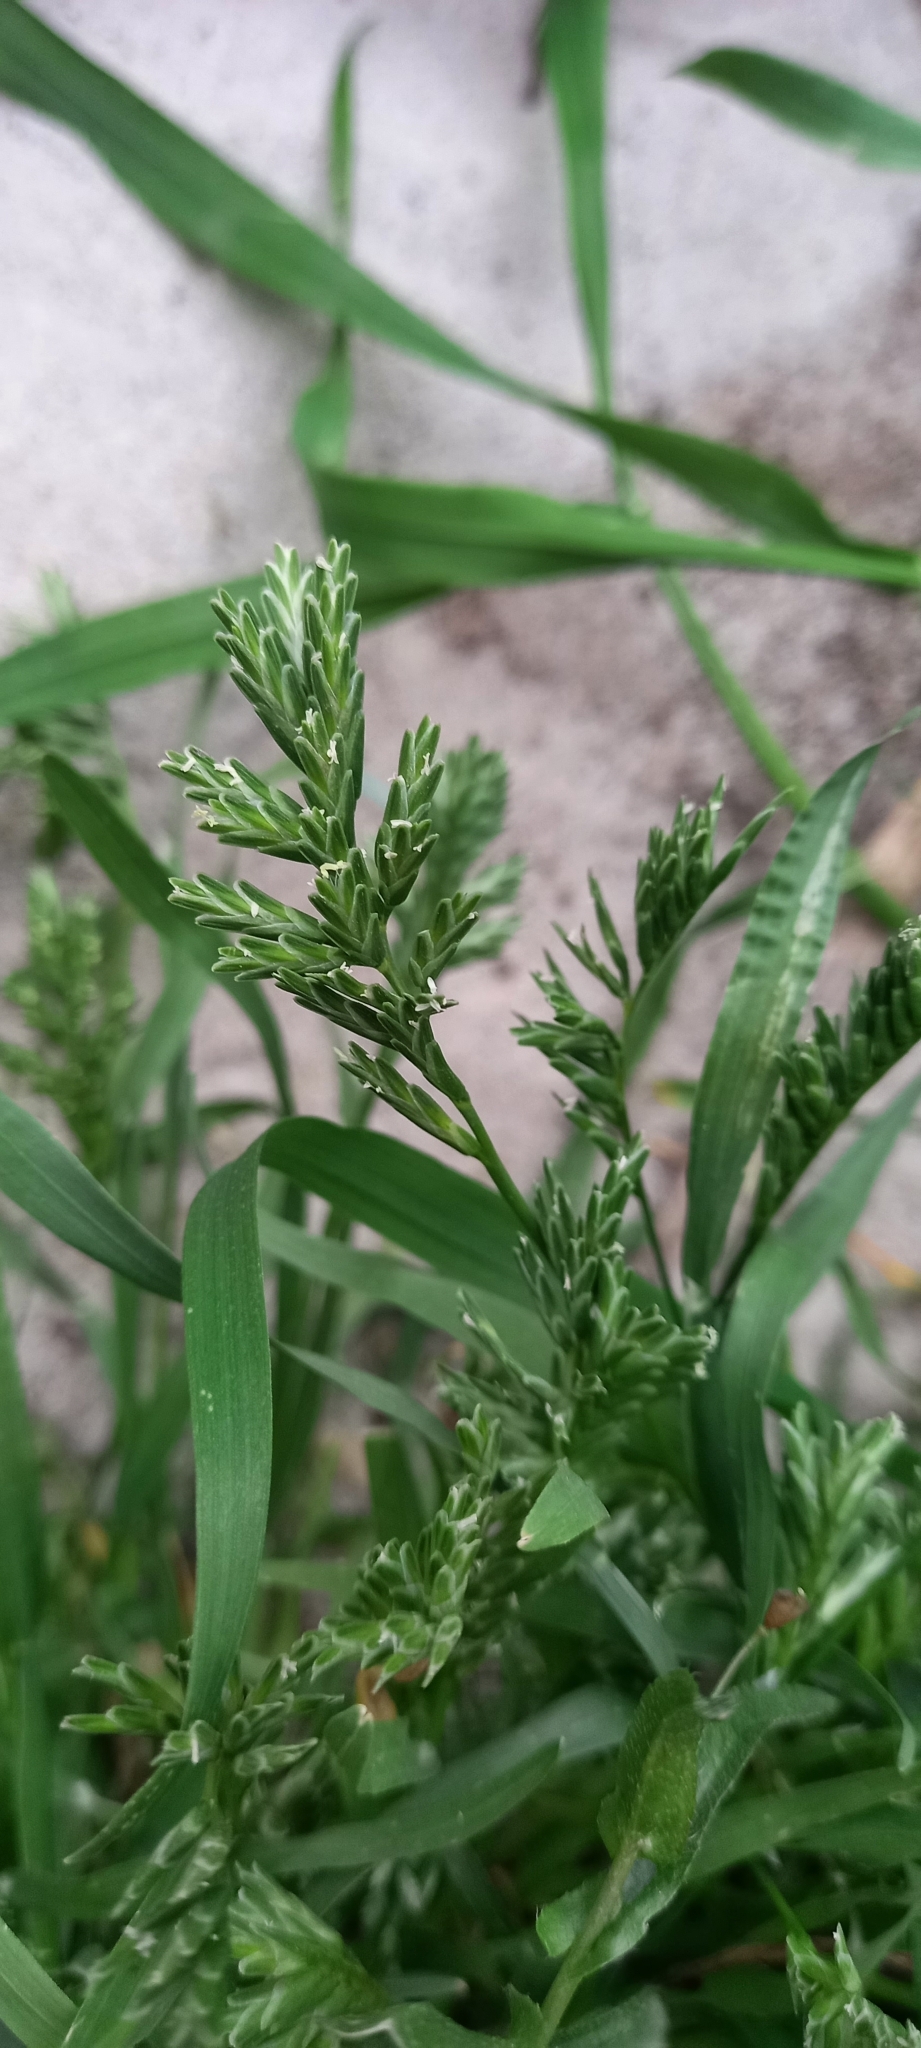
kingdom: Plantae
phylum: Tracheophyta
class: Liliopsida
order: Poales
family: Poaceae
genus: Sclerochloa
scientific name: Sclerochloa dura
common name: Common hardgrass
